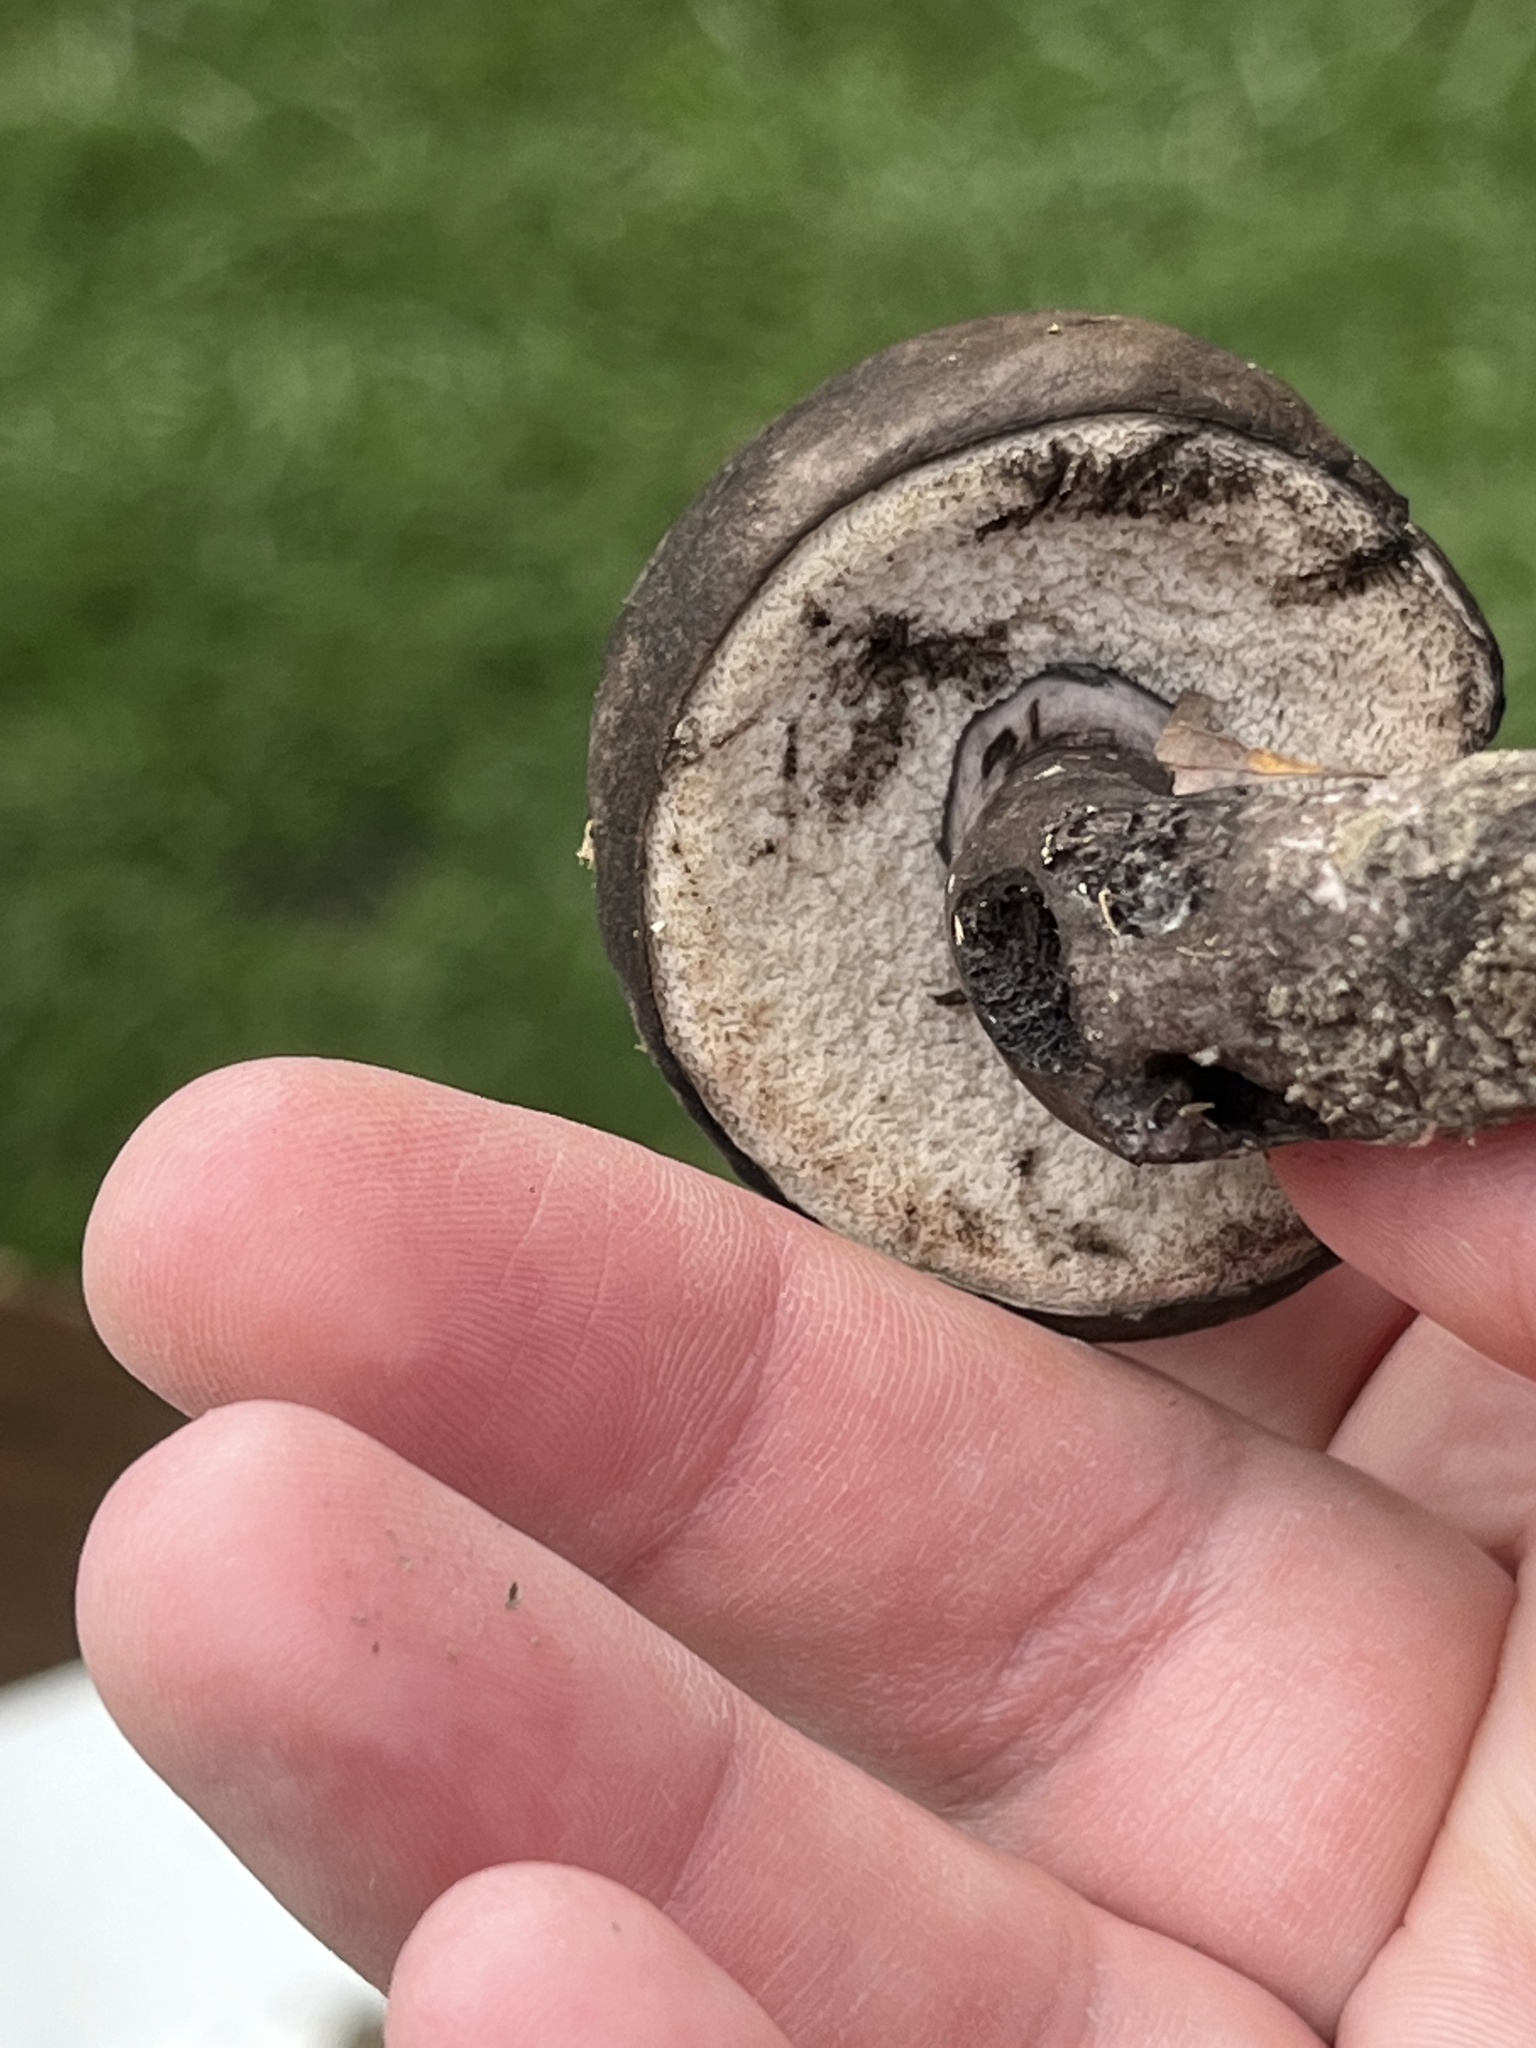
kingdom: Fungi
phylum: Basidiomycota
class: Agaricomycetes
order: Boletales
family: Boletaceae
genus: Tylopilus
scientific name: Tylopilus alboater
